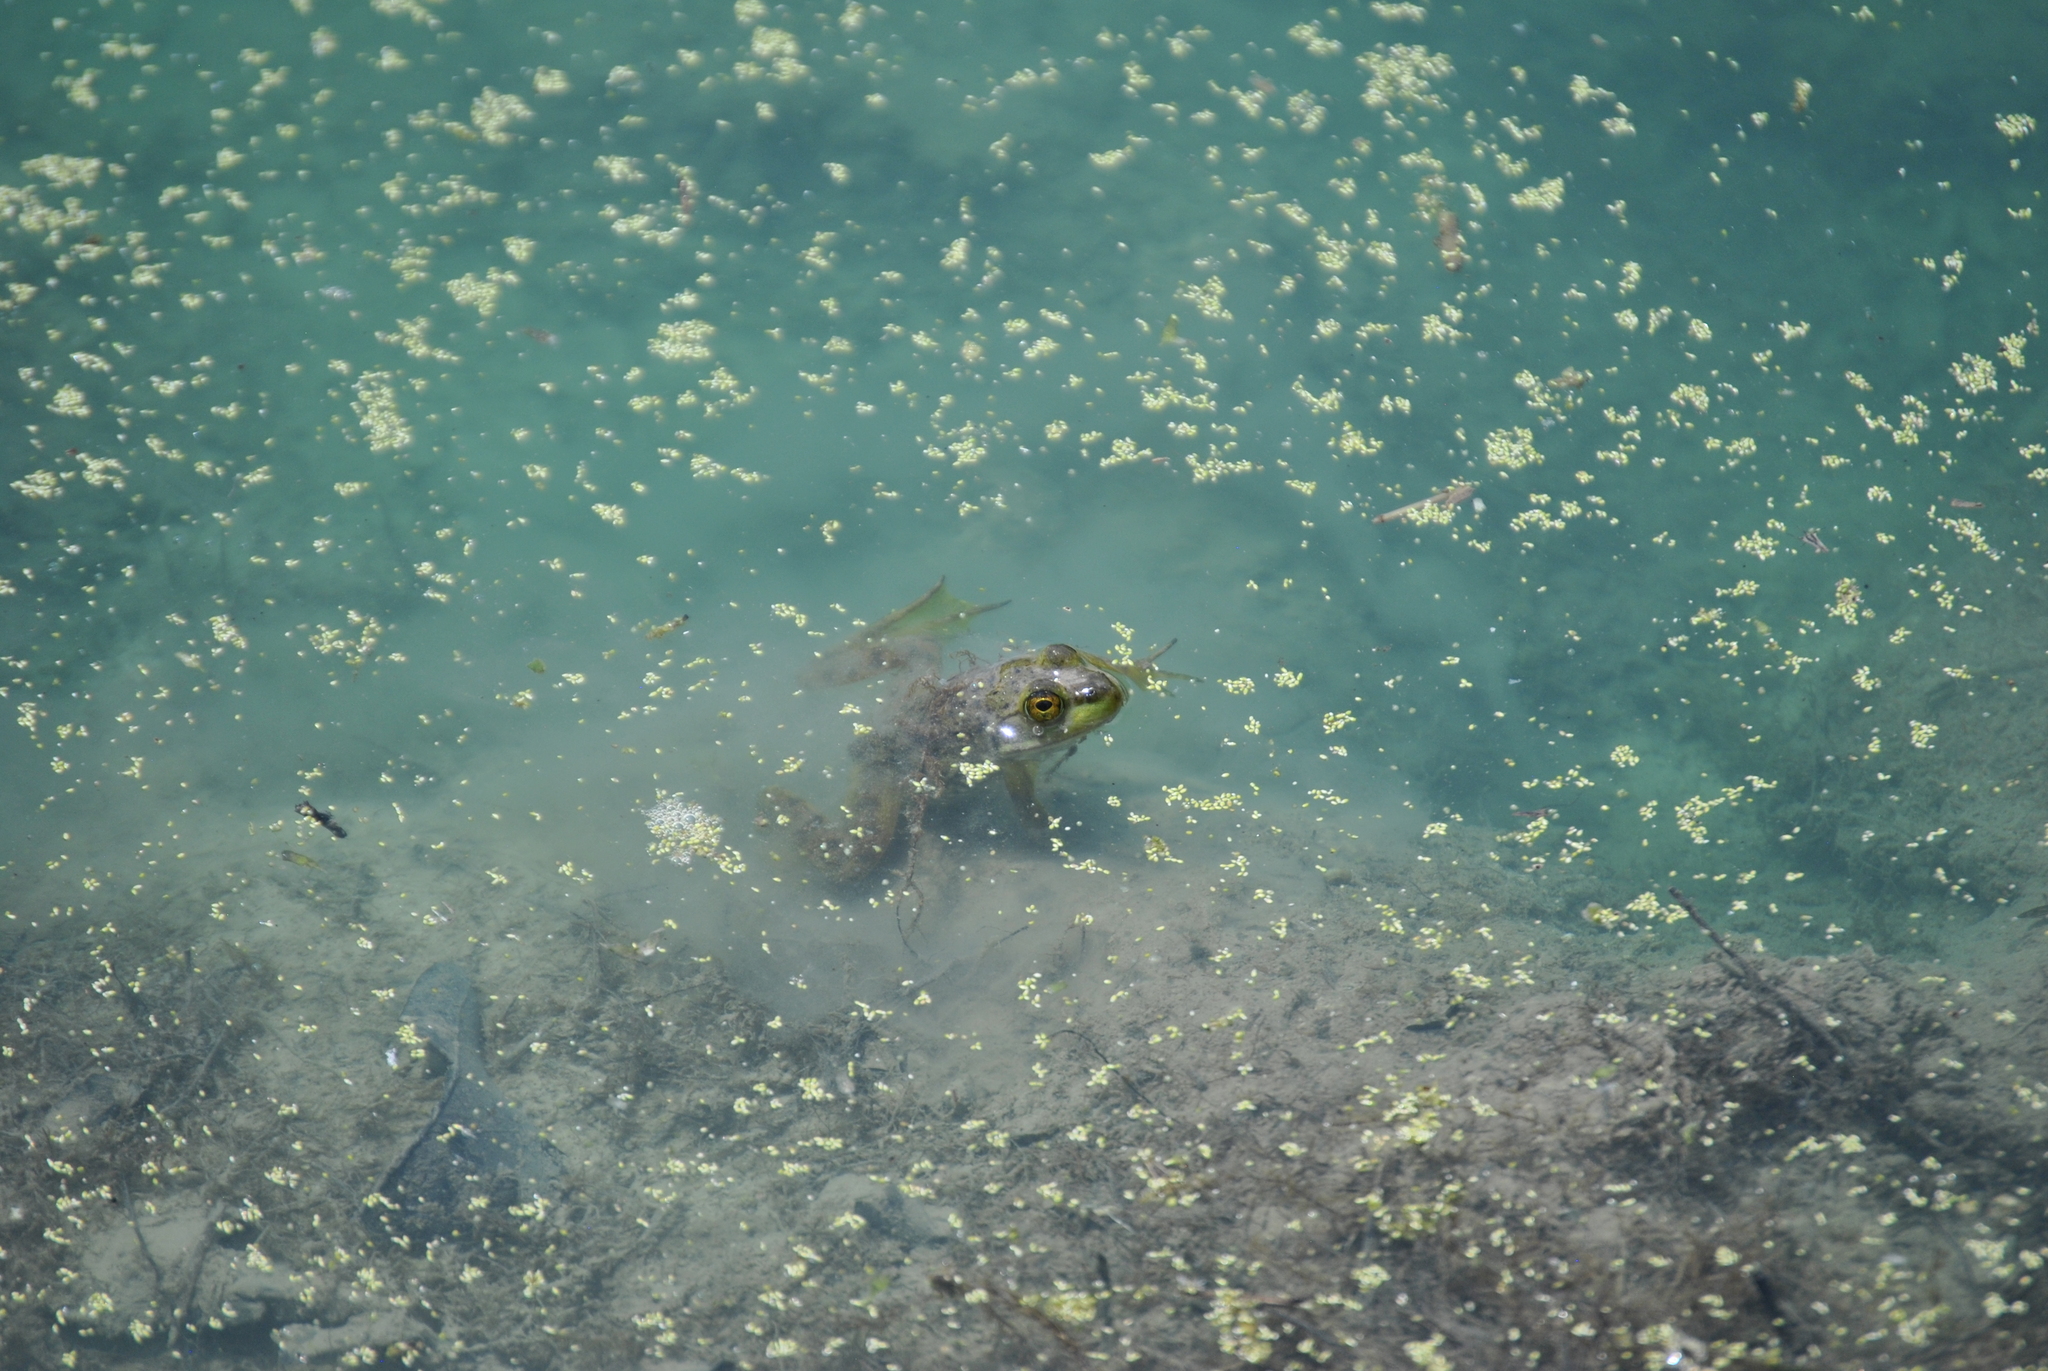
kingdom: Animalia
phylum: Chordata
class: Amphibia
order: Anura
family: Ranidae
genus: Lithobates
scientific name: Lithobates catesbeianus
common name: American bullfrog
